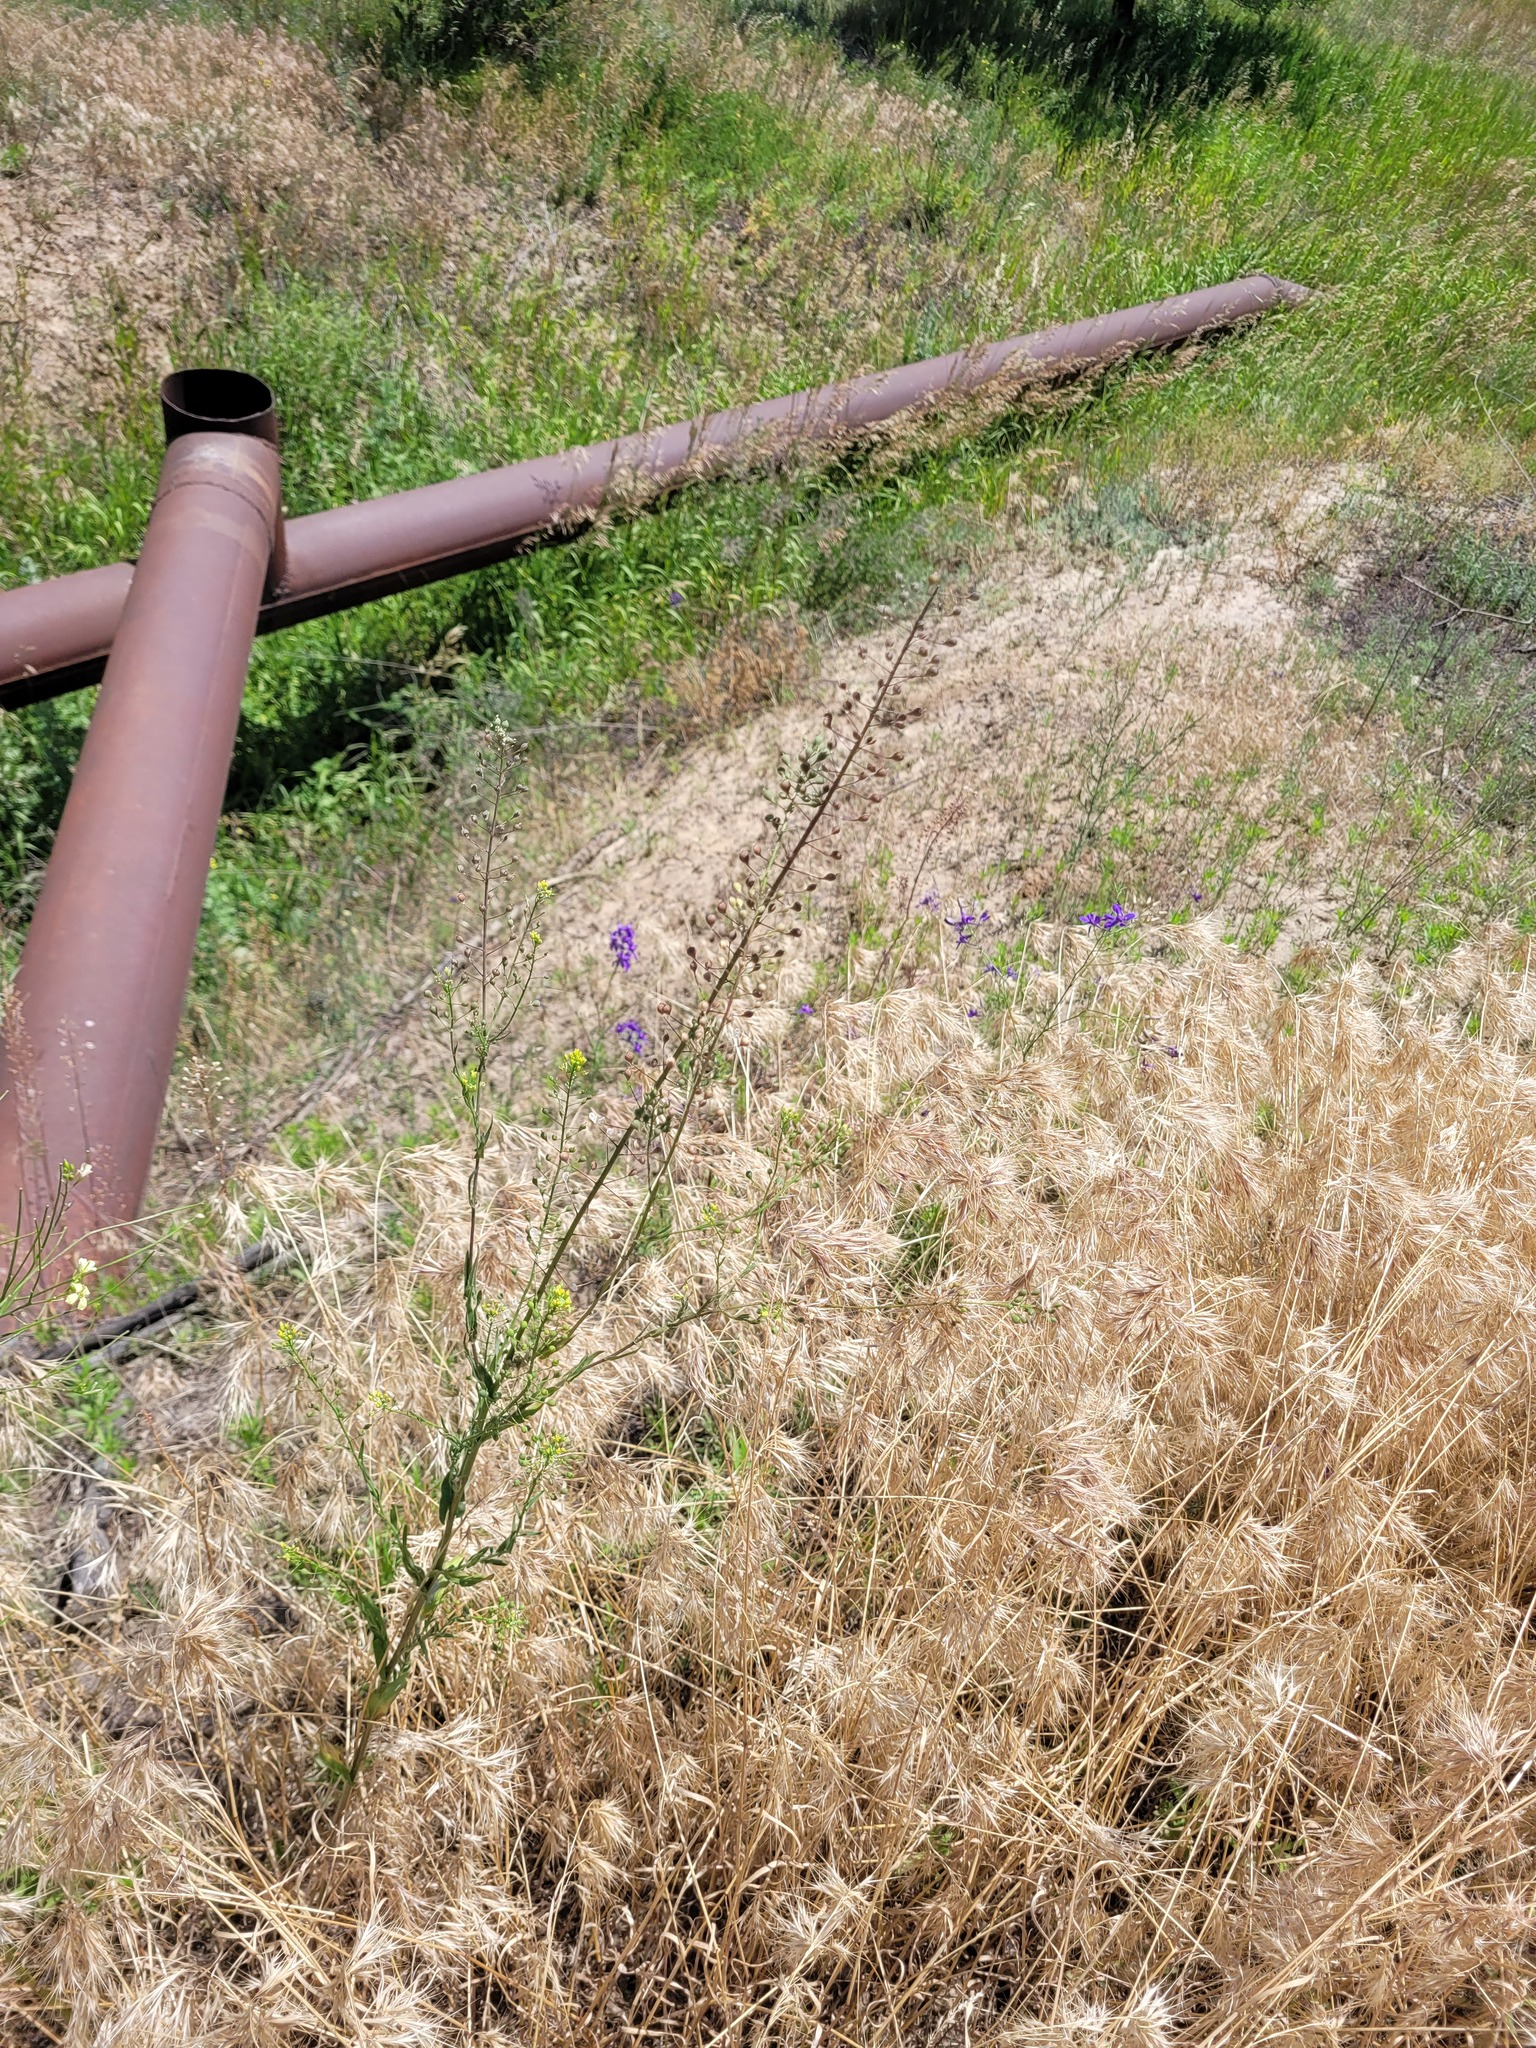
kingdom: Plantae
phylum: Tracheophyta
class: Magnoliopsida
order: Brassicales
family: Brassicaceae
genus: Camelina
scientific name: Camelina microcarpa
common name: Lesser gold-of-pleasure
